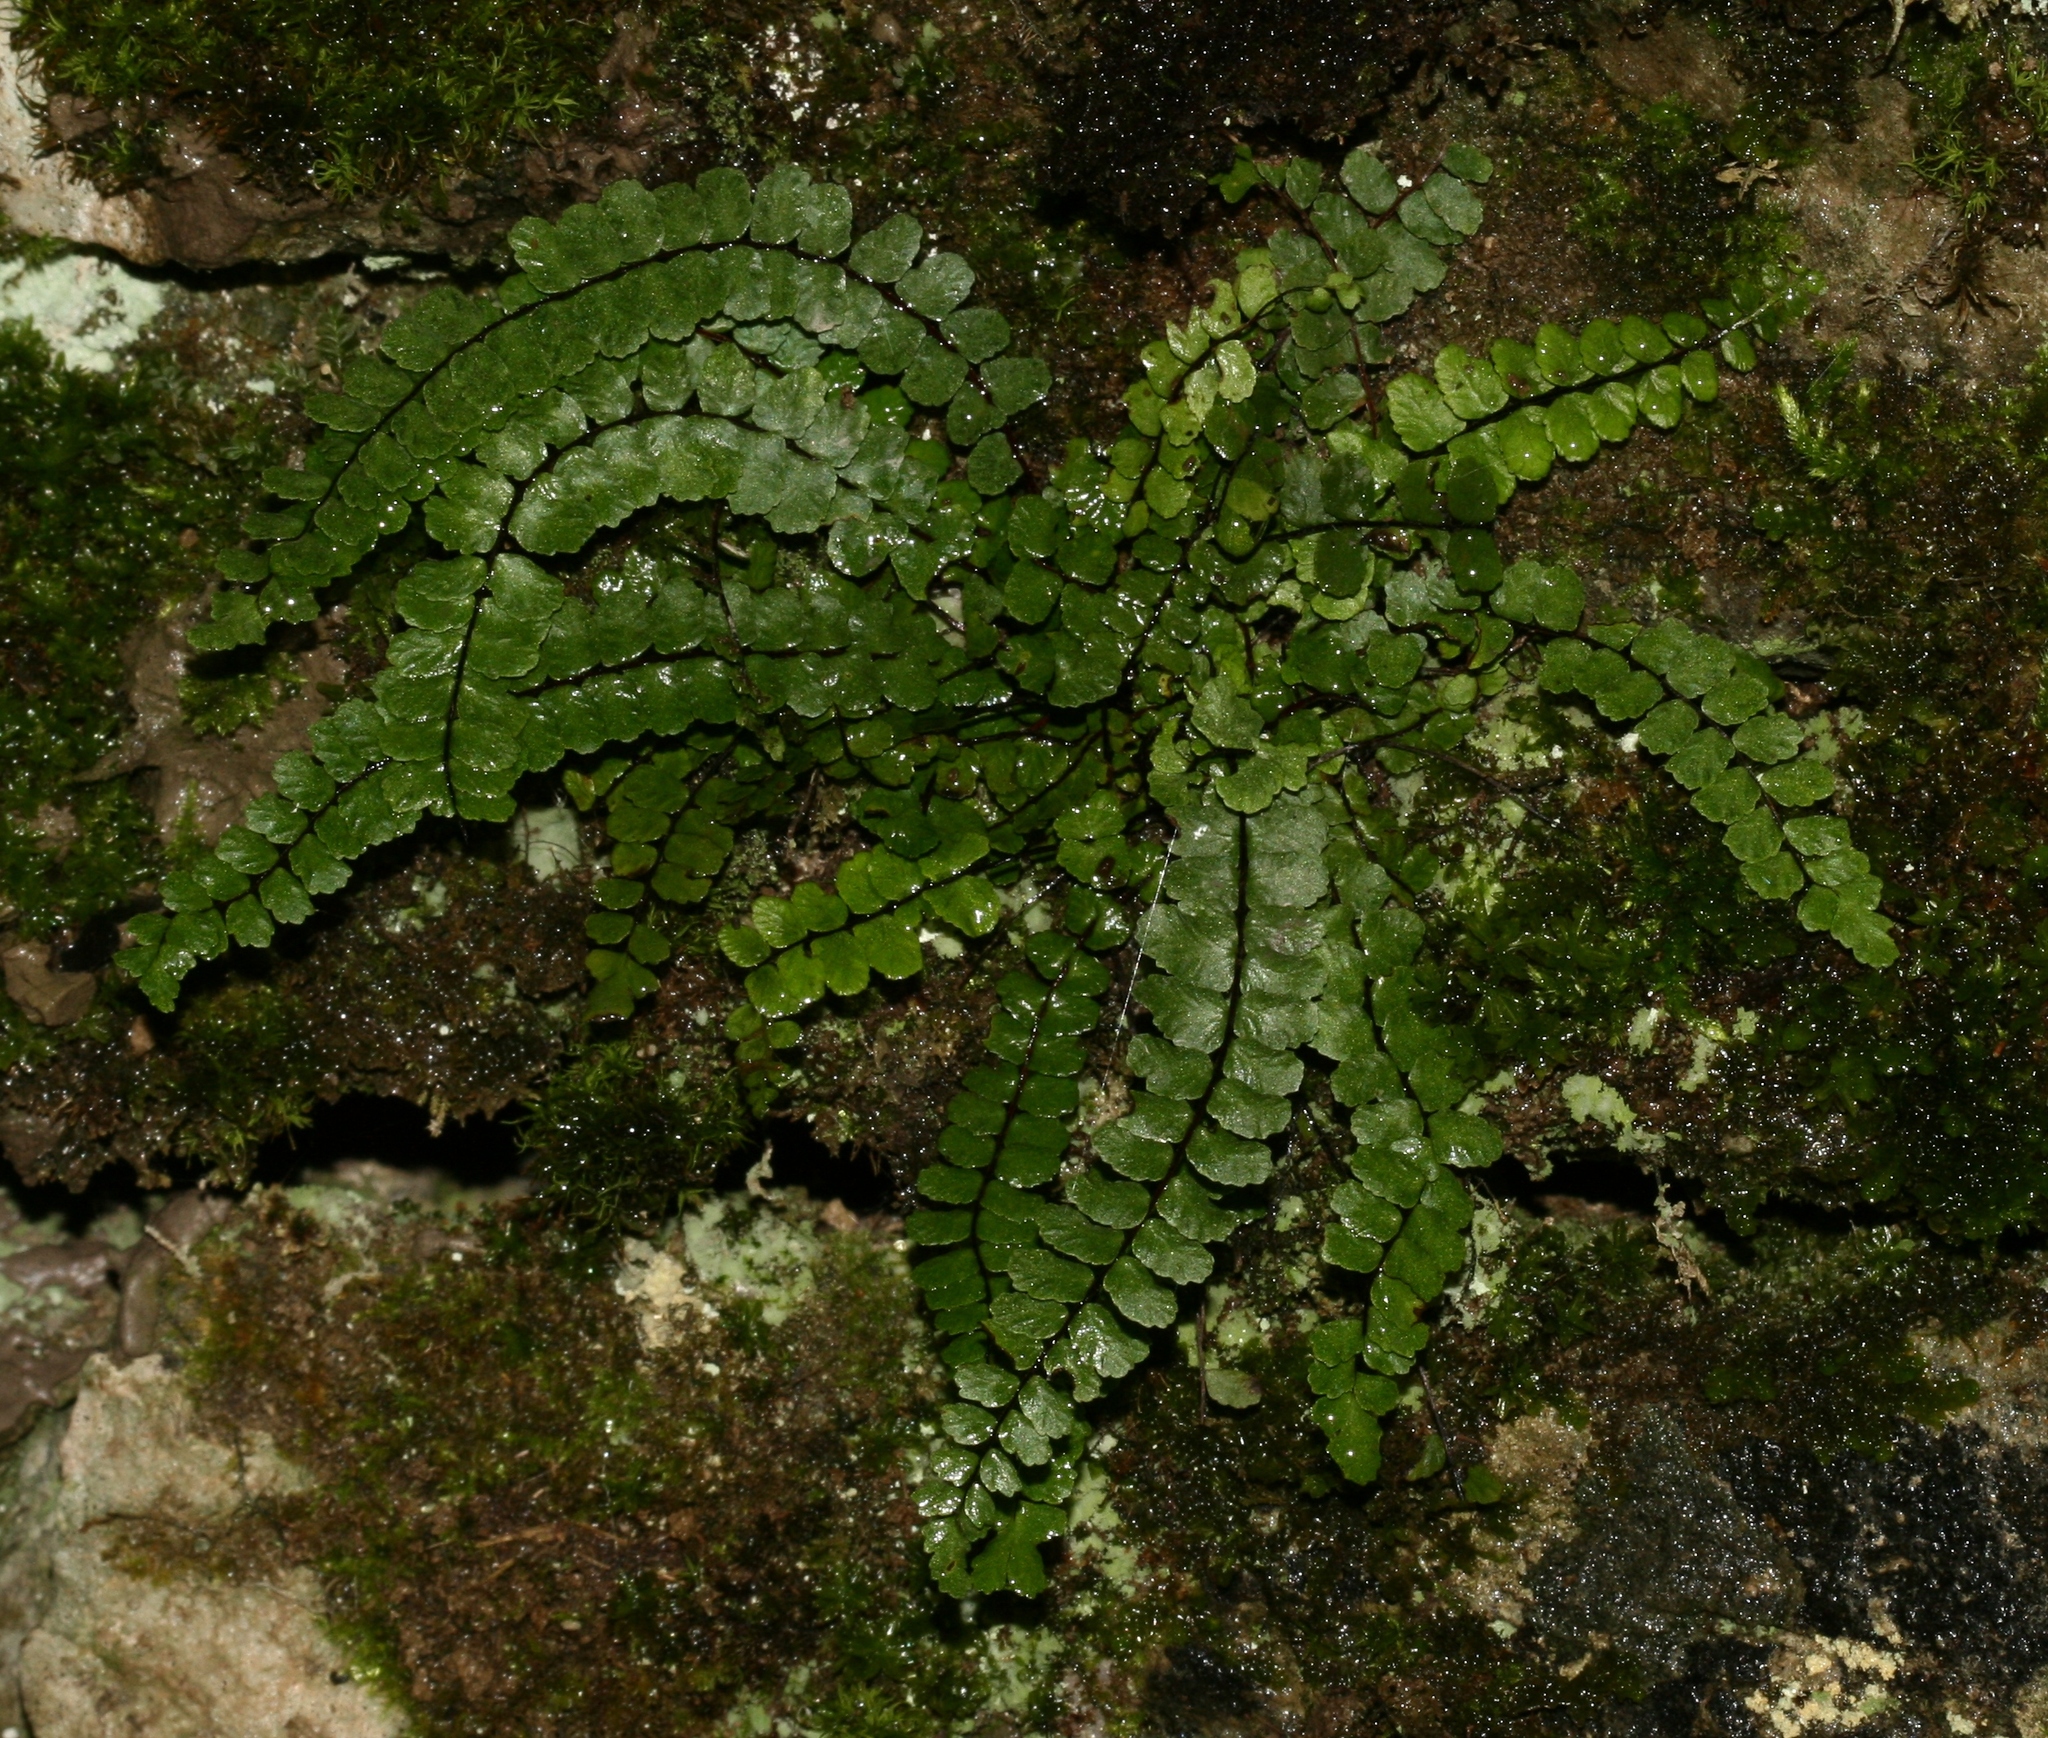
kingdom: Plantae
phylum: Tracheophyta
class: Polypodiopsida
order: Polypodiales
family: Aspleniaceae
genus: Asplenium
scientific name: Asplenium trichomanes
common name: Maidenhair spleenwort
